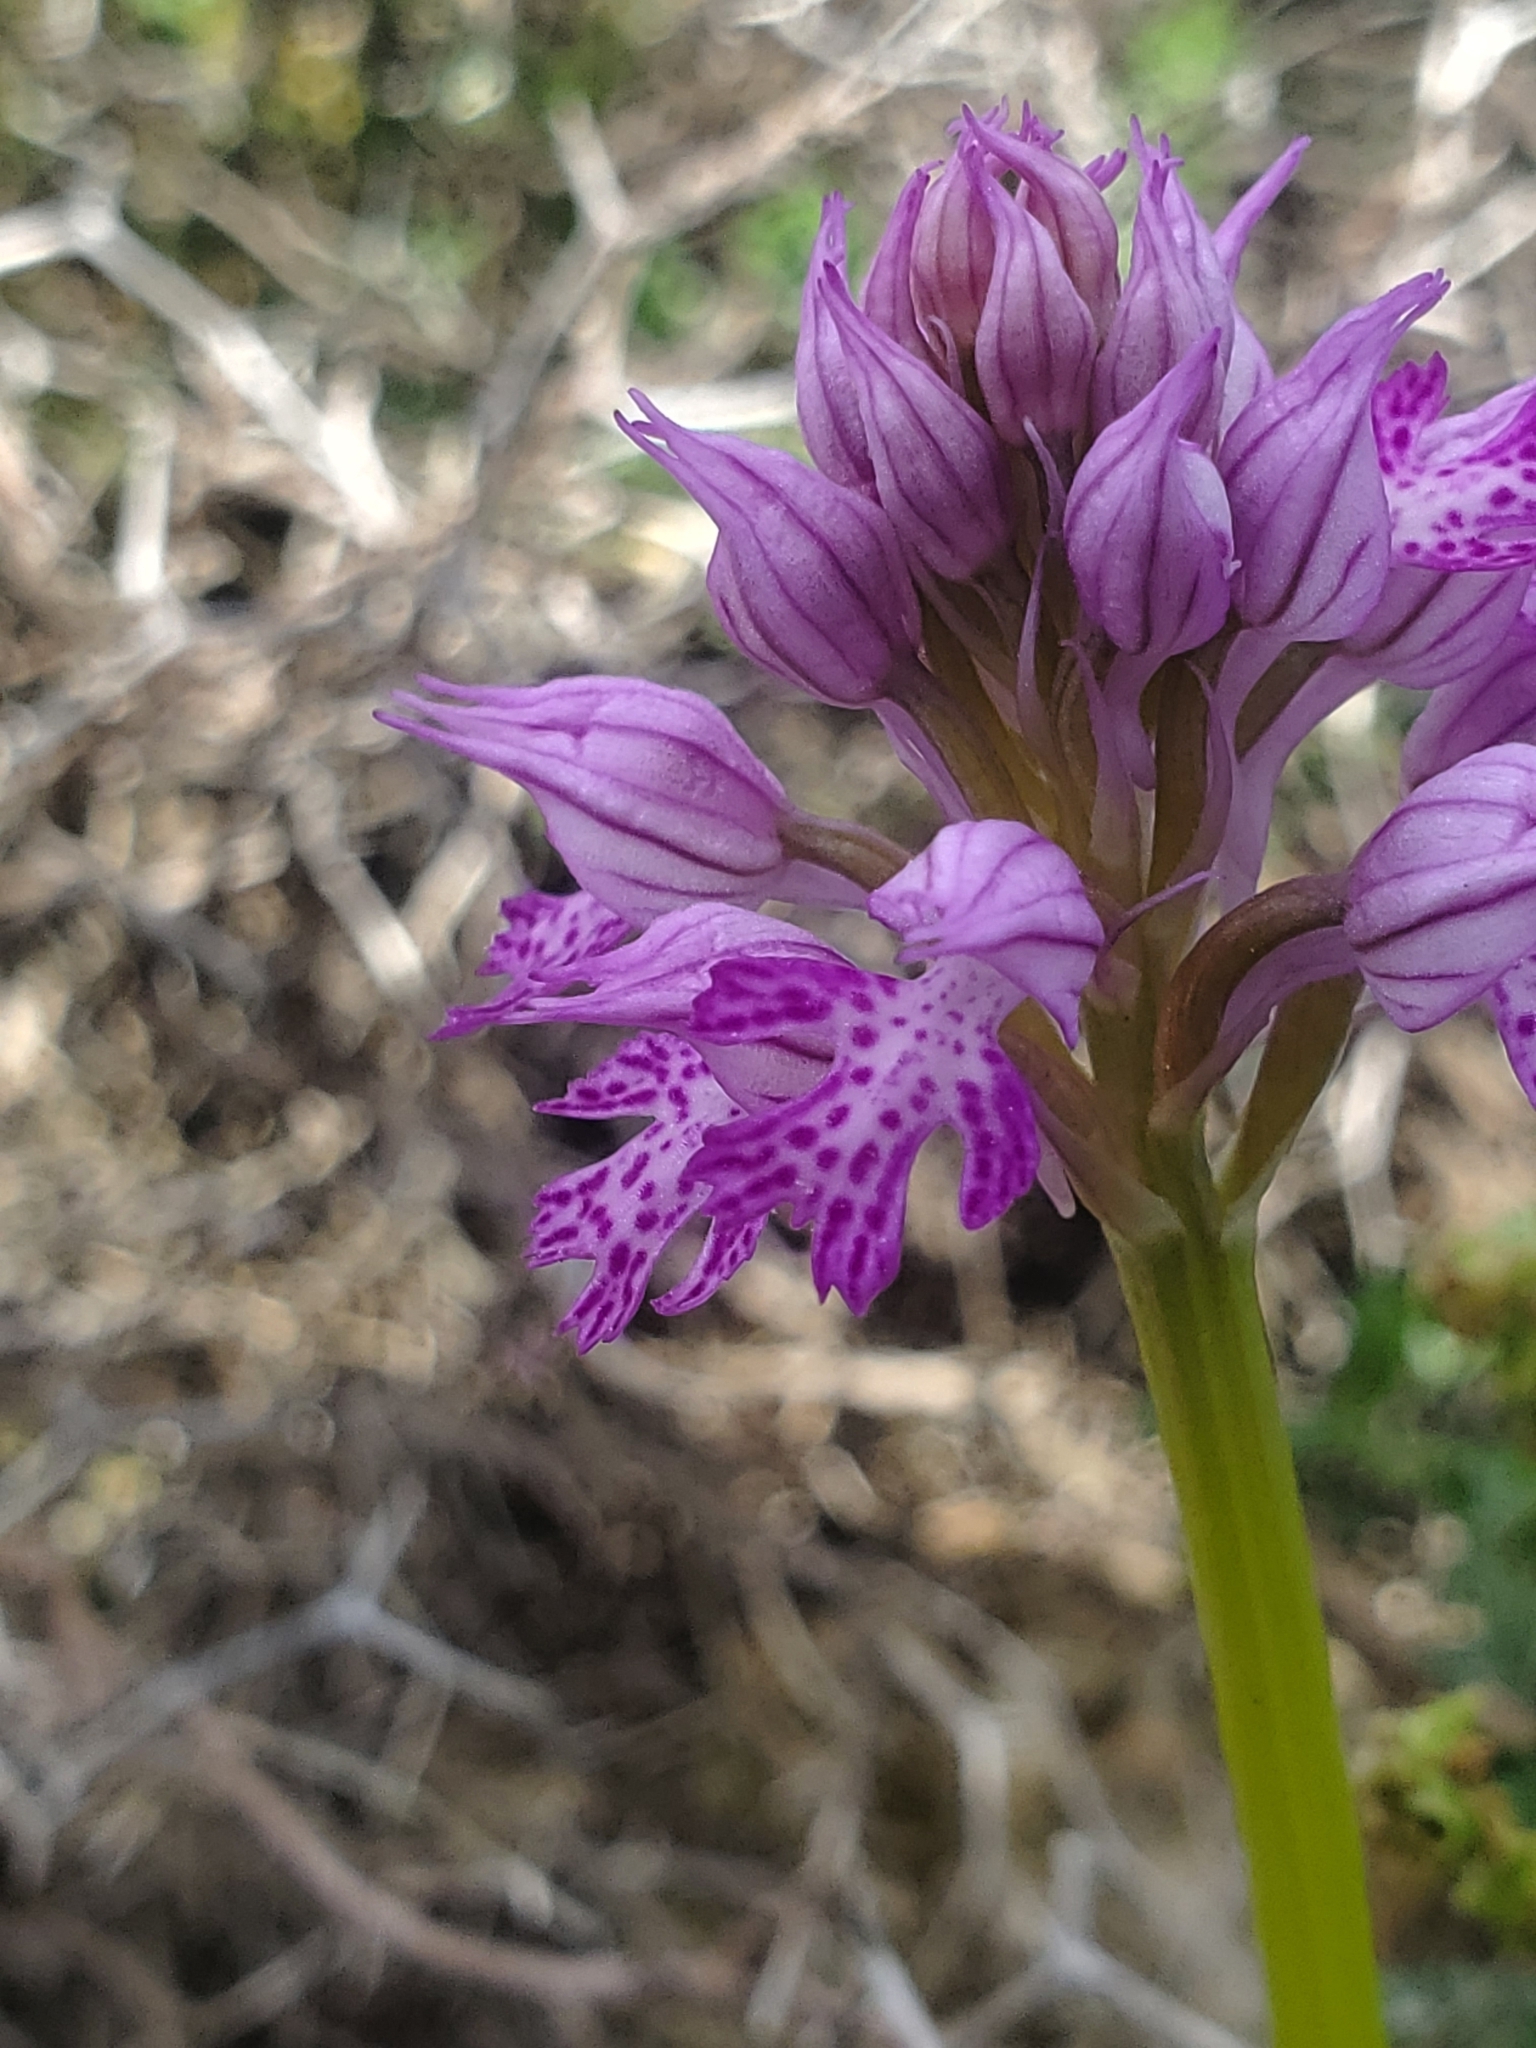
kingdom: Plantae
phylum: Tracheophyta
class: Liliopsida
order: Asparagales
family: Orchidaceae
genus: Neotinea
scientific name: Neotinea tridentata
